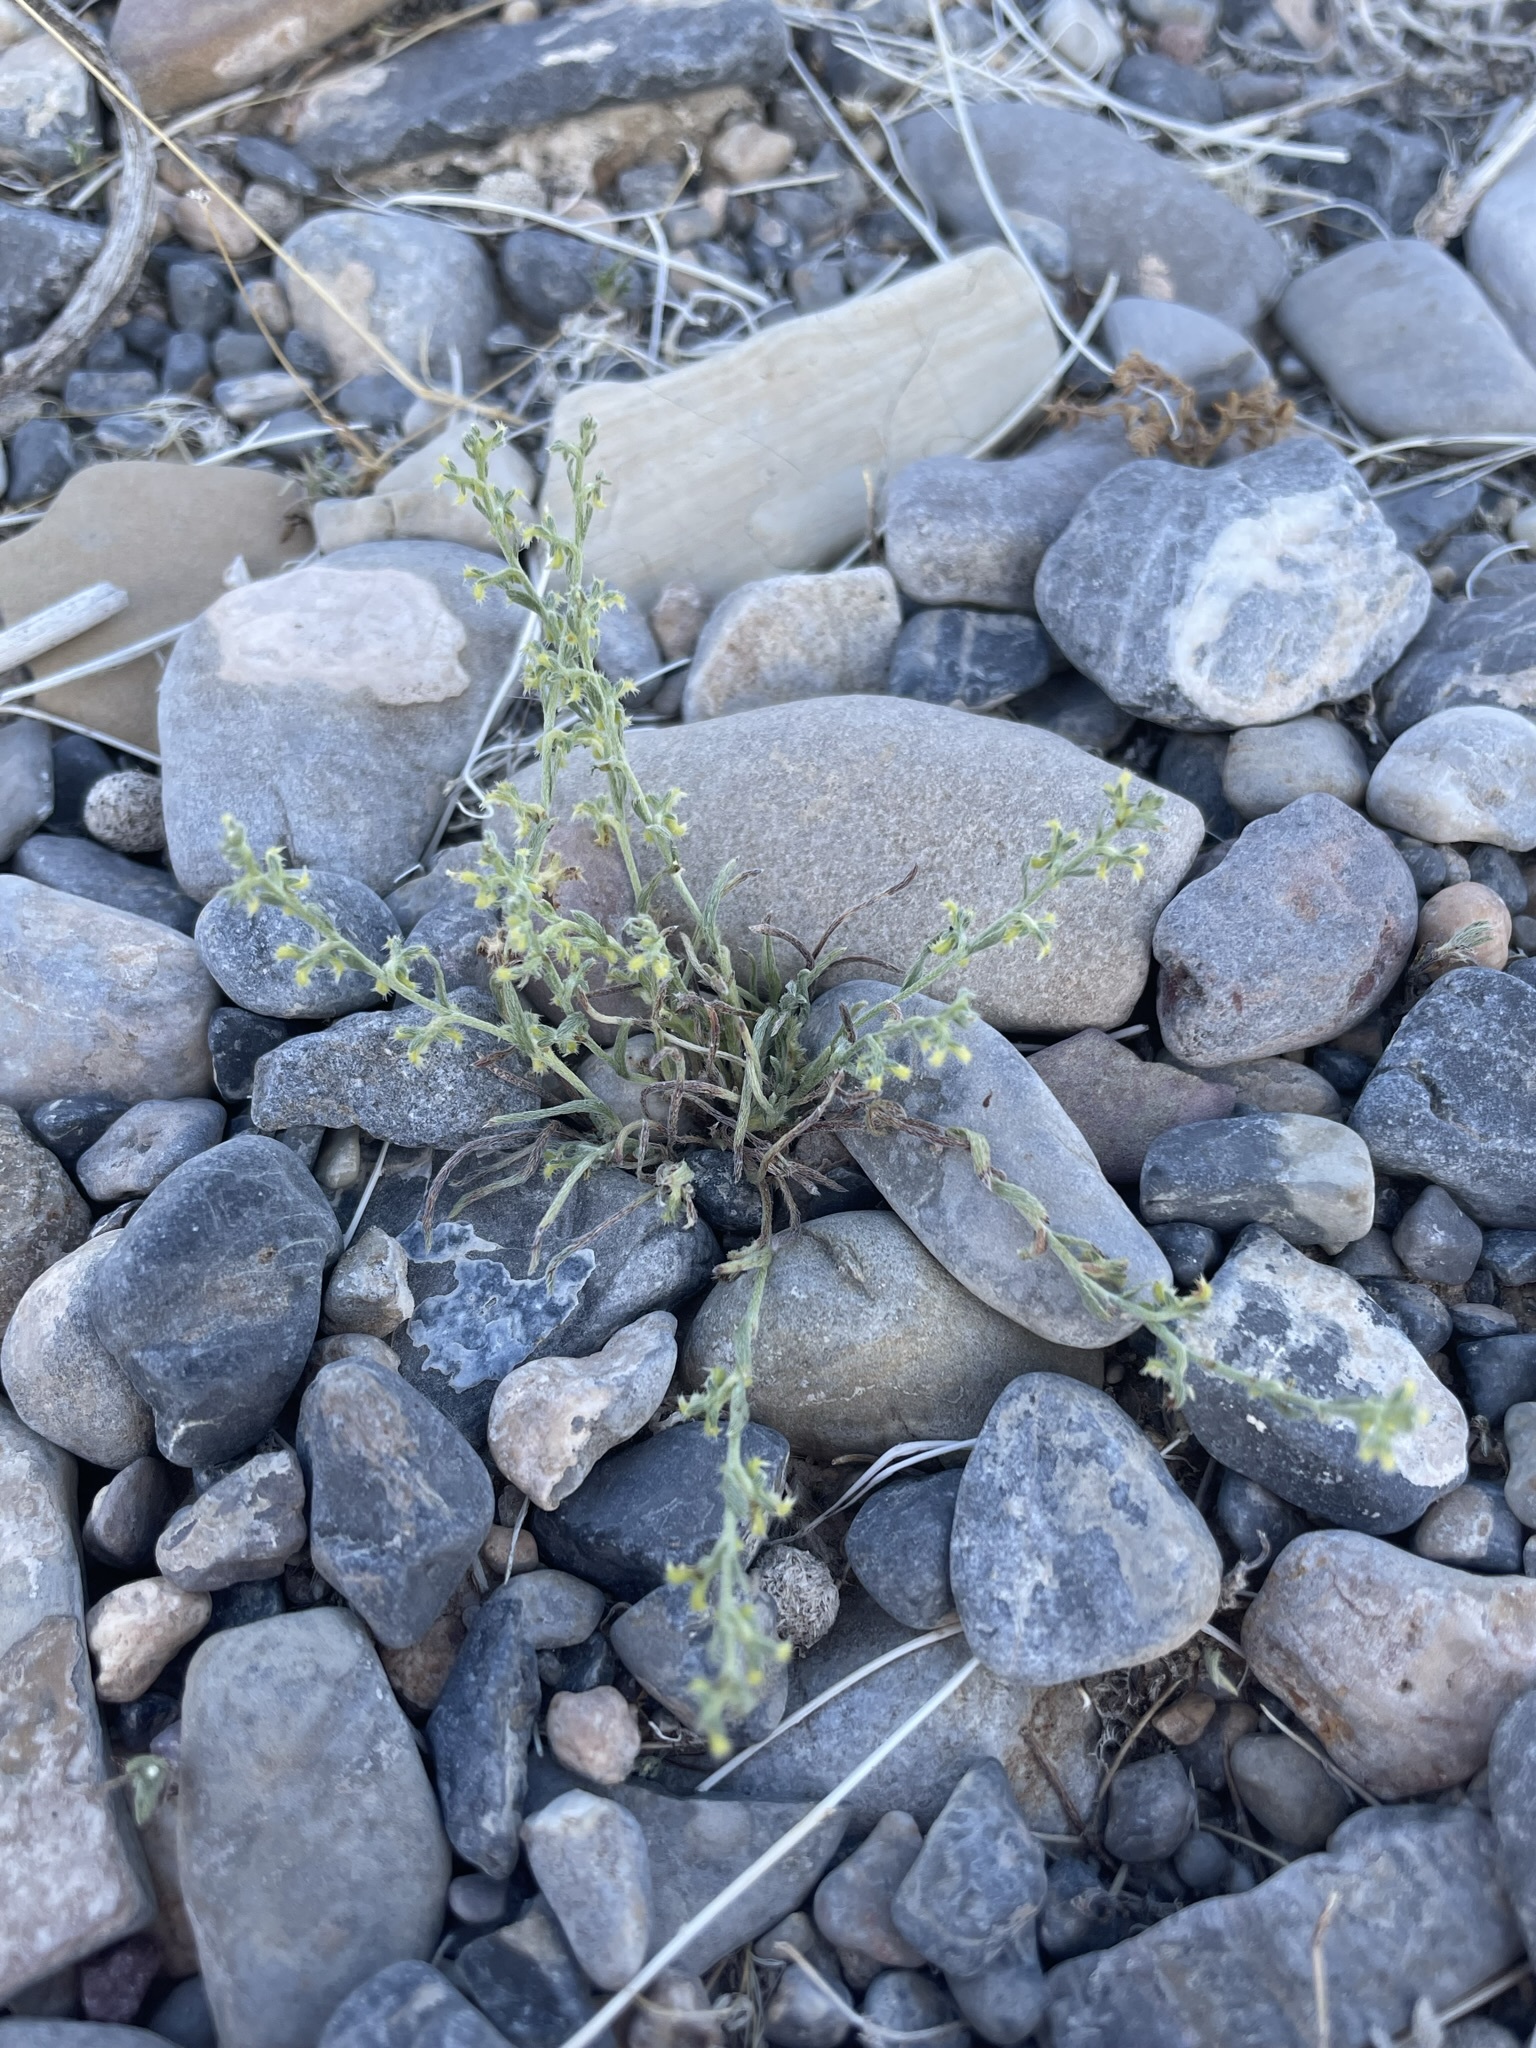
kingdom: Plantae
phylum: Tracheophyta
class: Magnoliopsida
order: Boraginales
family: Boraginaceae
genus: Pectocarya
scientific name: Pectocarya heterocarpa
